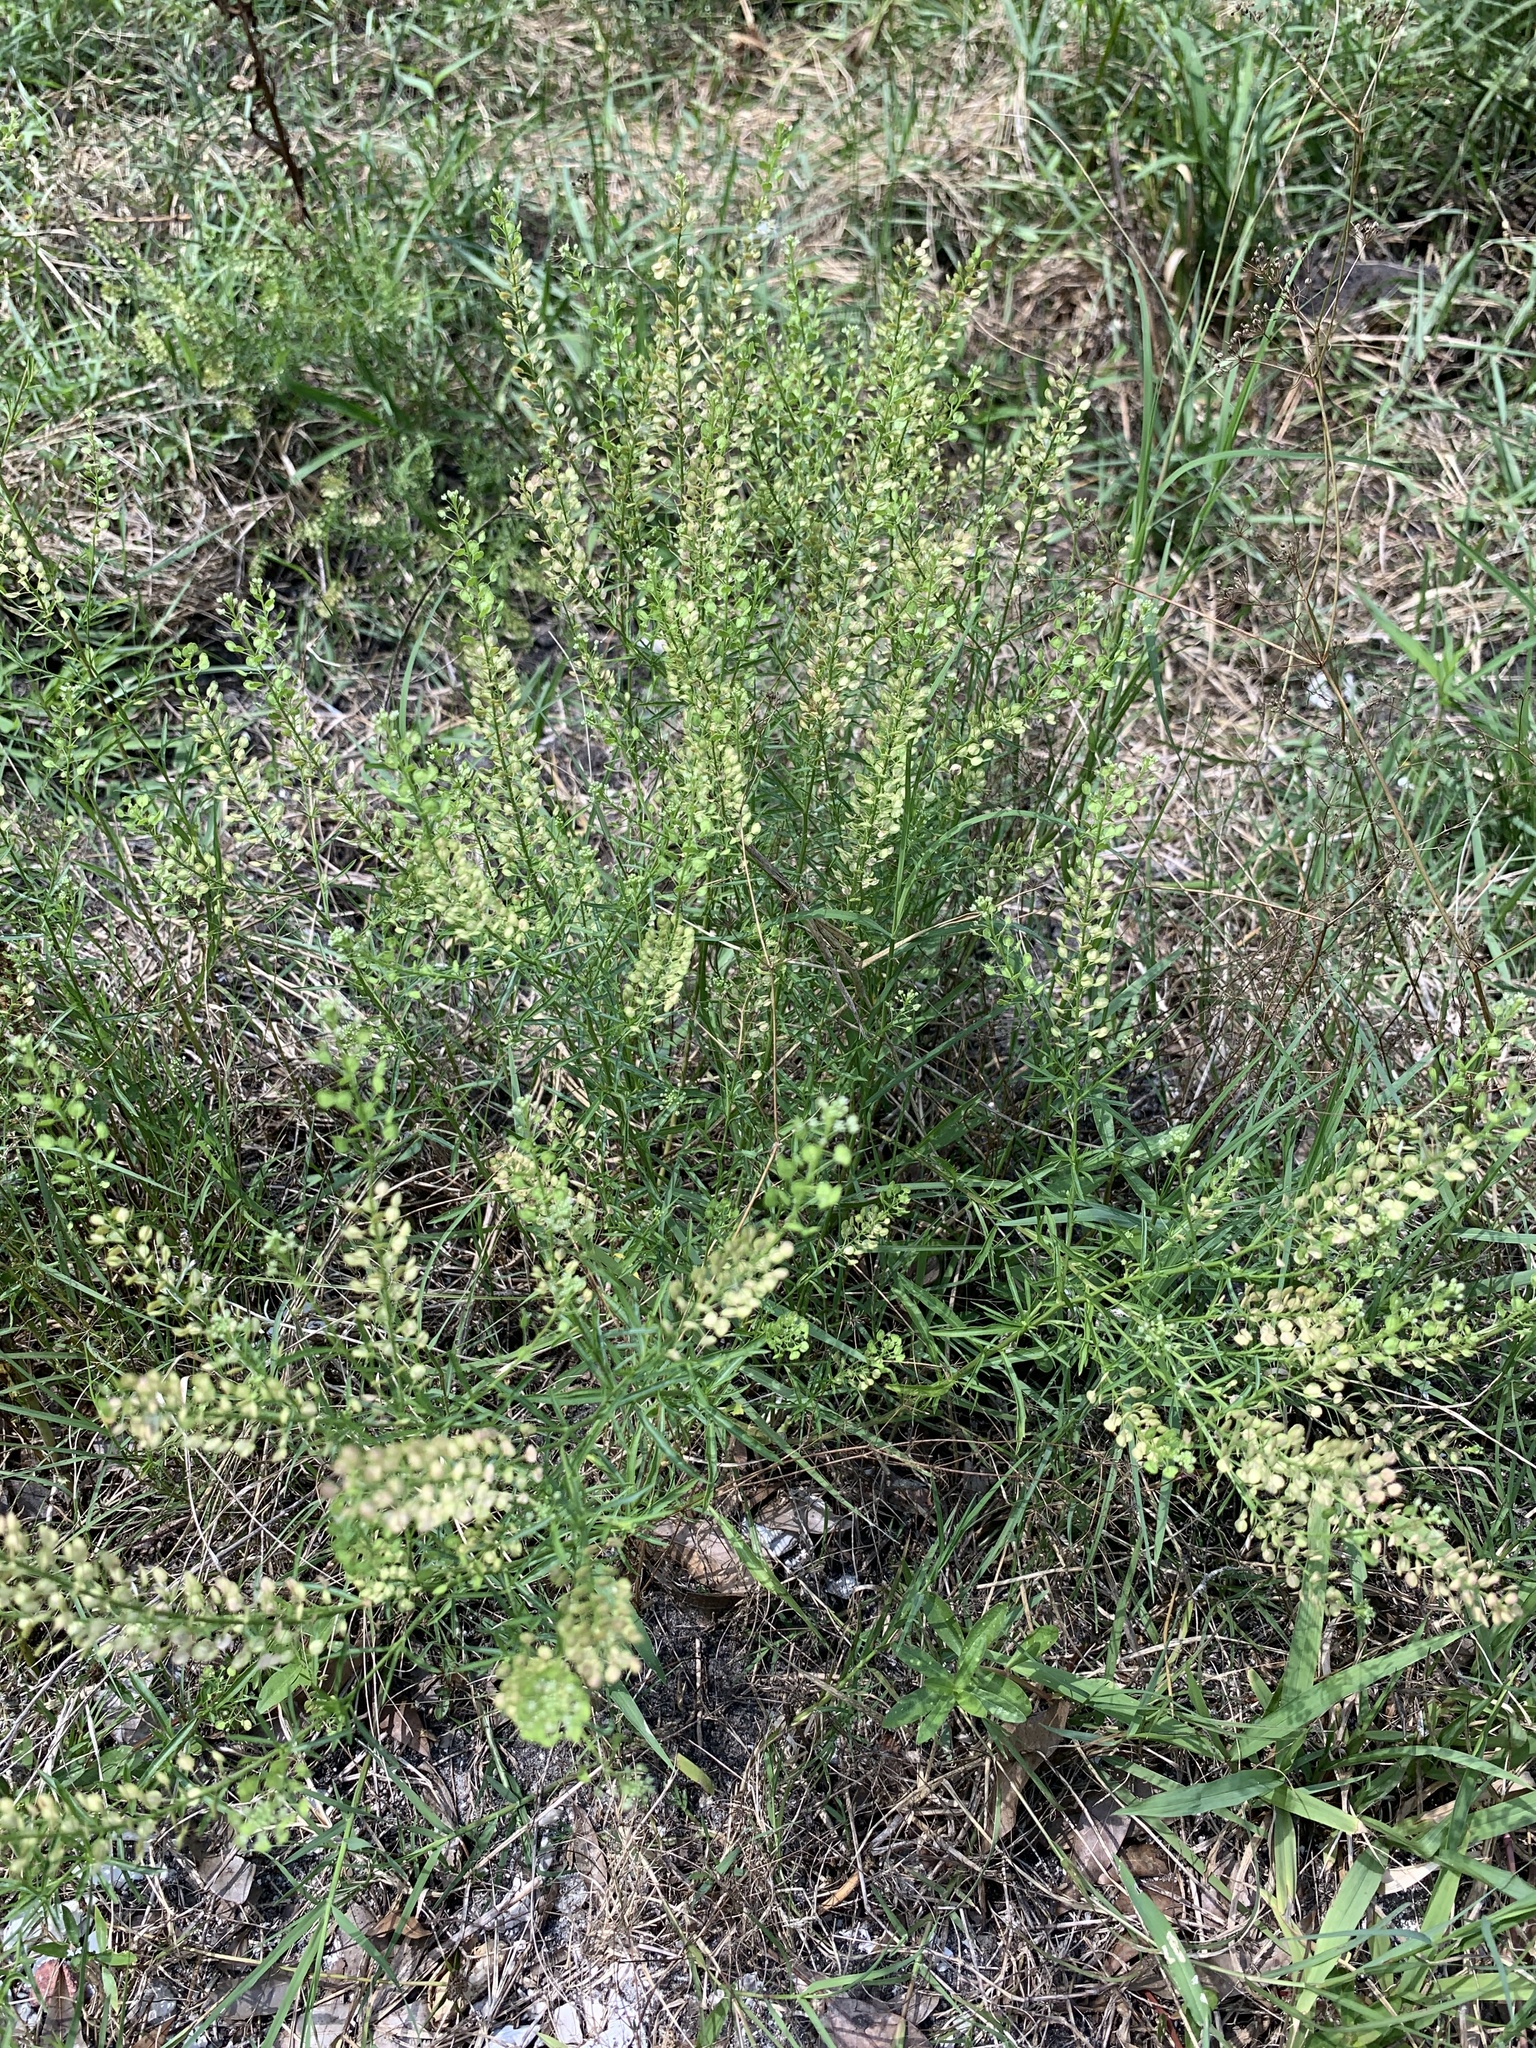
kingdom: Plantae
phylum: Tracheophyta
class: Magnoliopsida
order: Brassicales
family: Brassicaceae
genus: Lepidium
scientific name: Lepidium virginicum
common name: Least pepperwort
